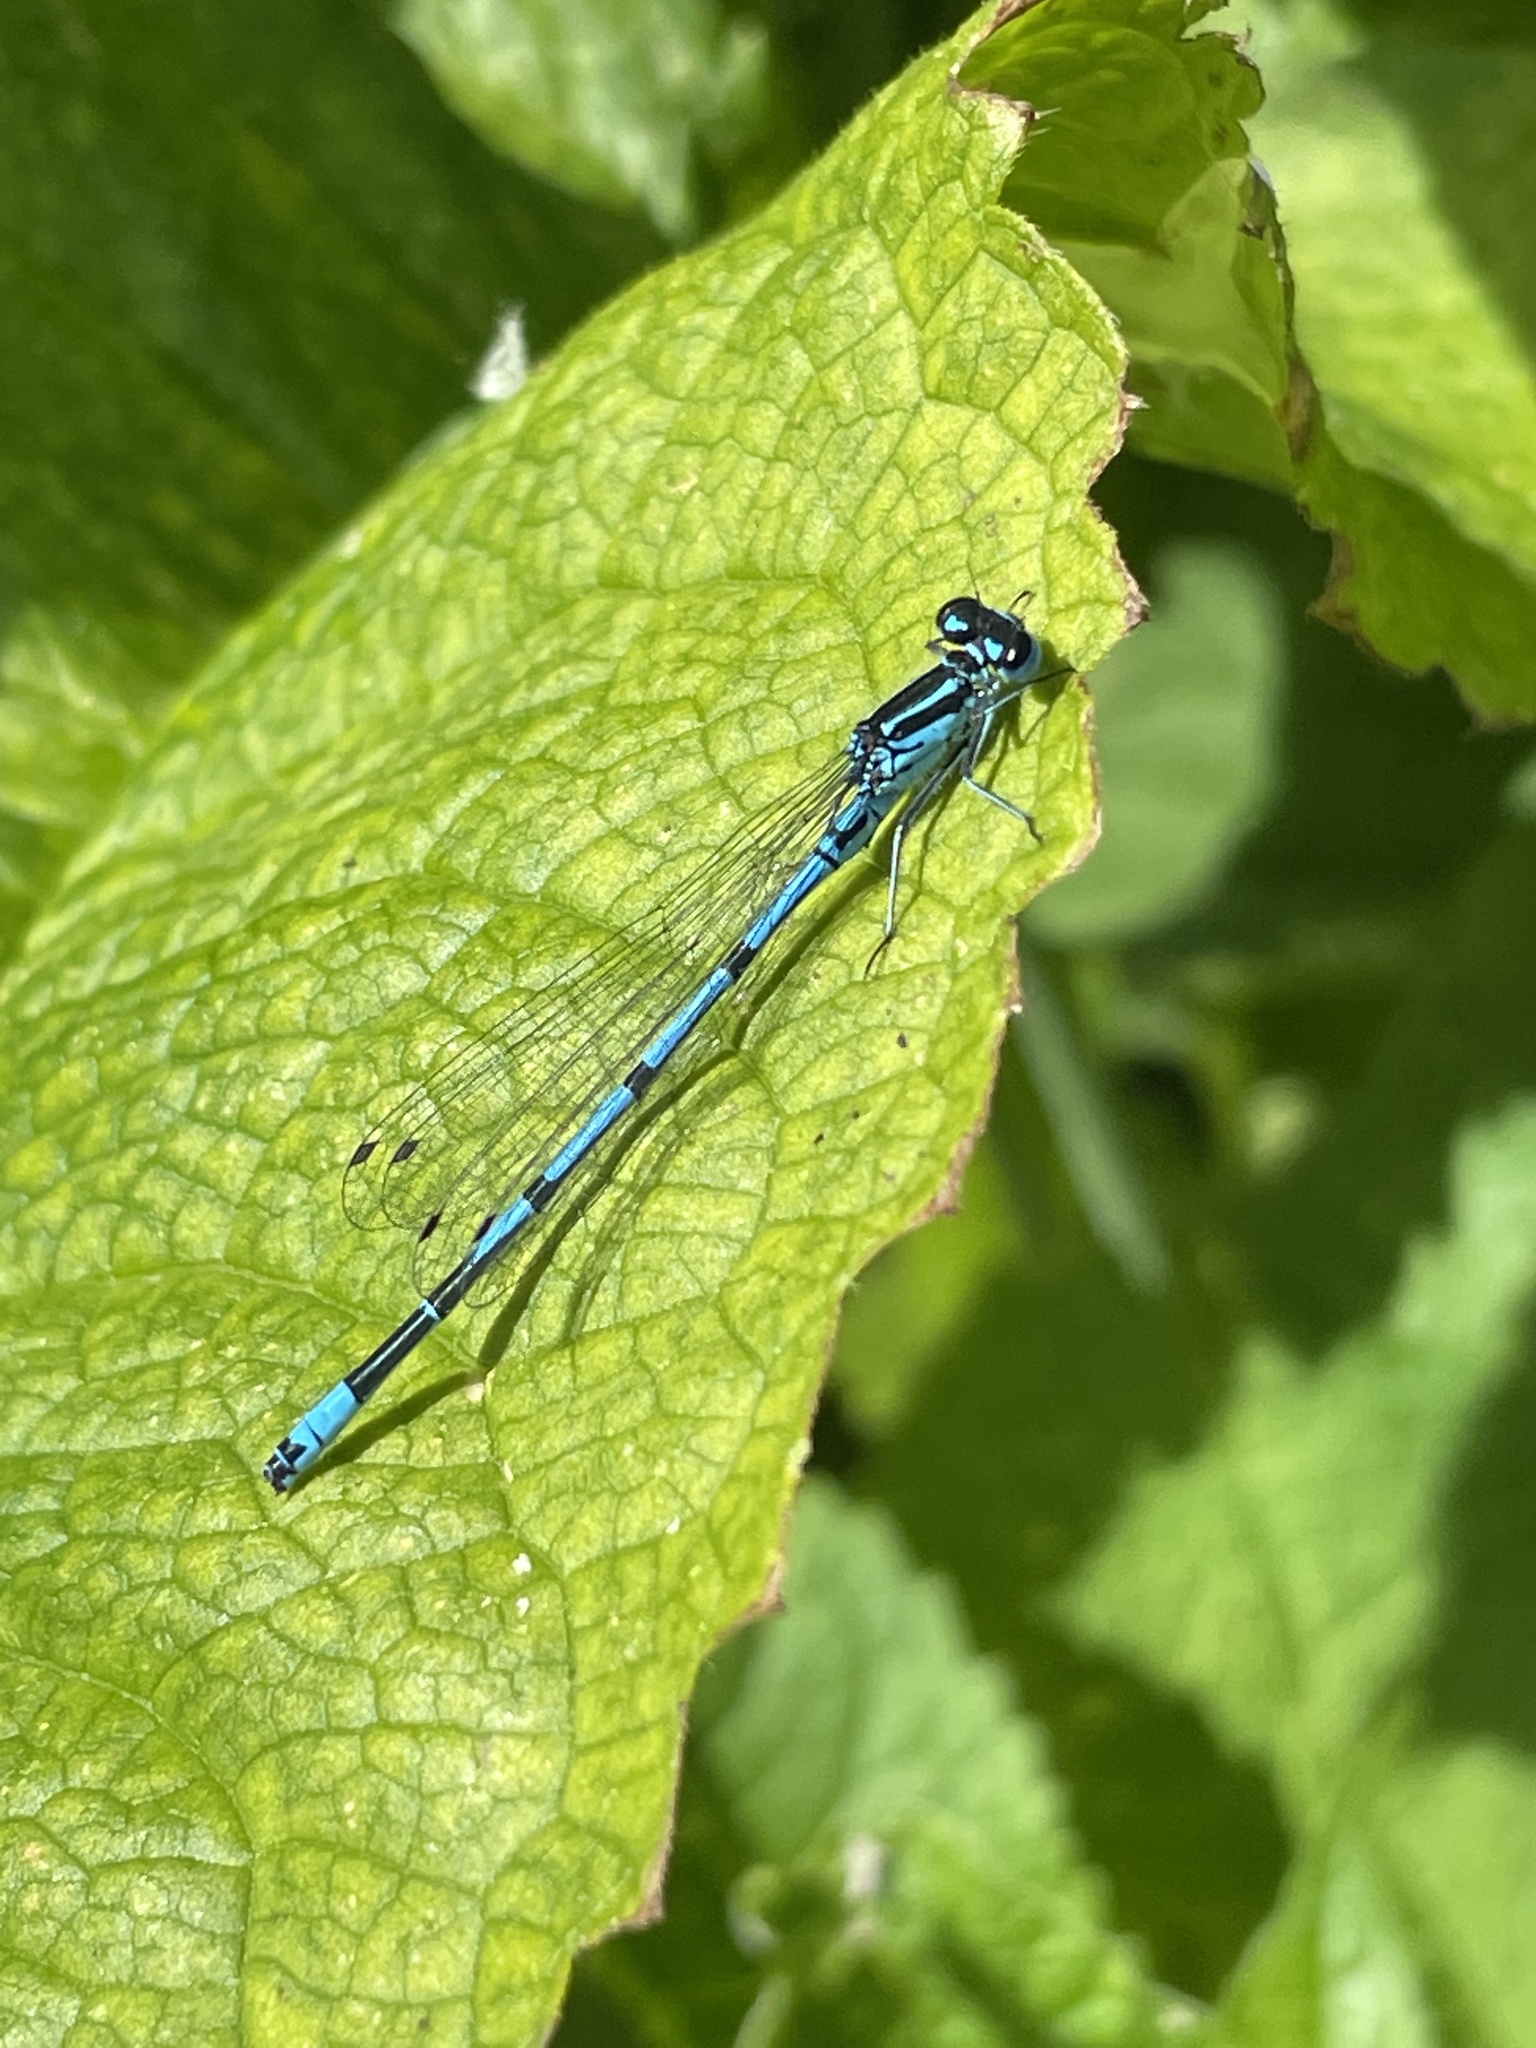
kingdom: Animalia
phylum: Arthropoda
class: Insecta
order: Odonata
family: Coenagrionidae
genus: Coenagrion
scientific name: Coenagrion puella
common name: Azure damselfly
